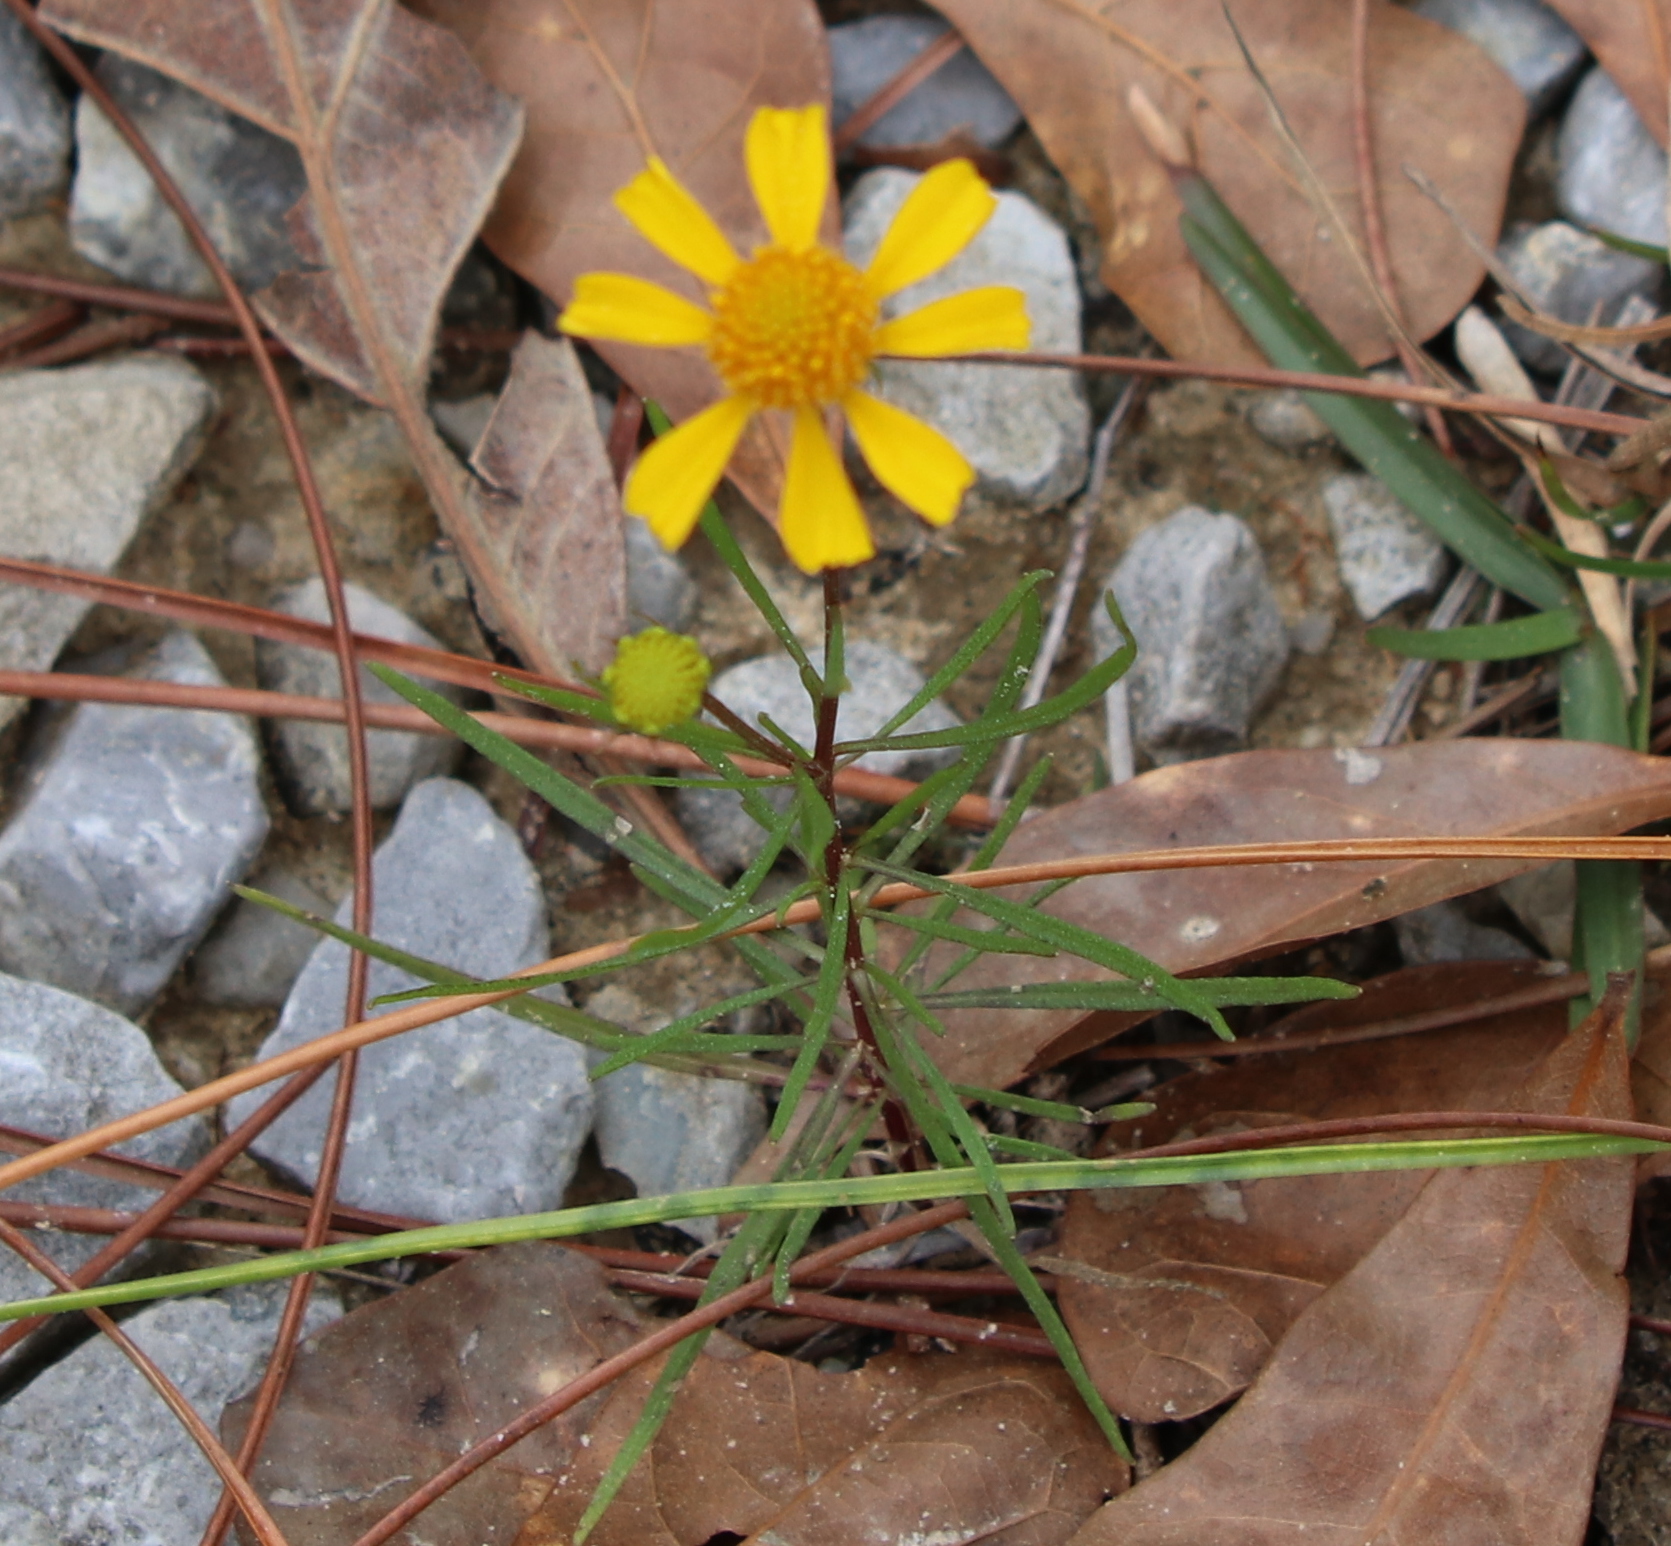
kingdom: Plantae
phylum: Tracheophyta
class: Magnoliopsida
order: Asterales
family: Asteraceae
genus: Helenium
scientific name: Helenium amarum
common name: Bitter sneezeweed
